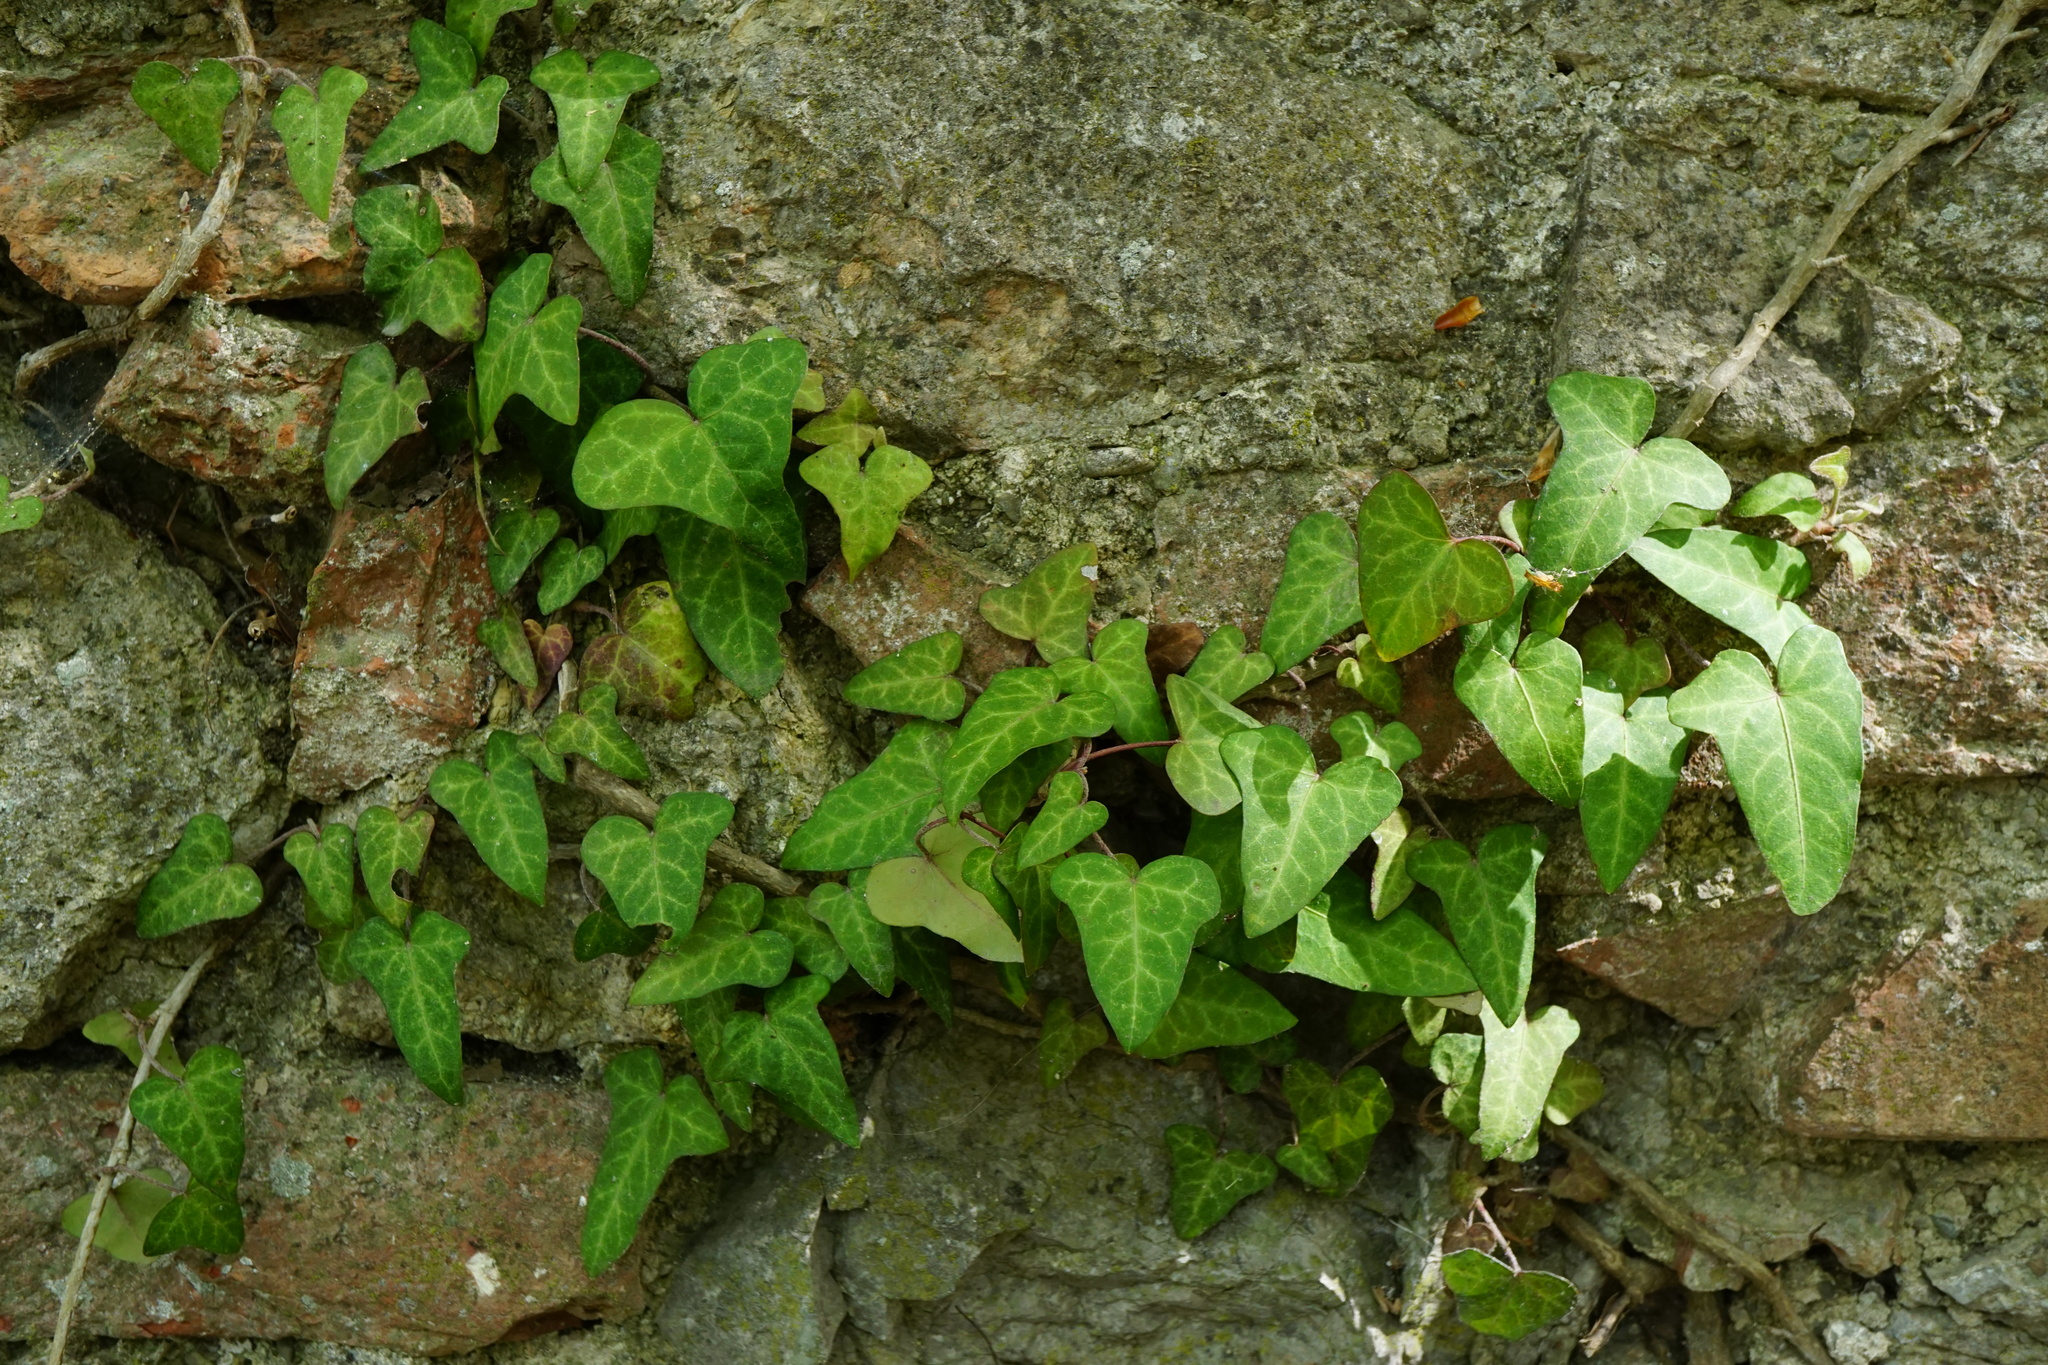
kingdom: Plantae
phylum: Tracheophyta
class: Magnoliopsida
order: Apiales
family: Araliaceae
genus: Hedera
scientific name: Hedera helix
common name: Ivy
